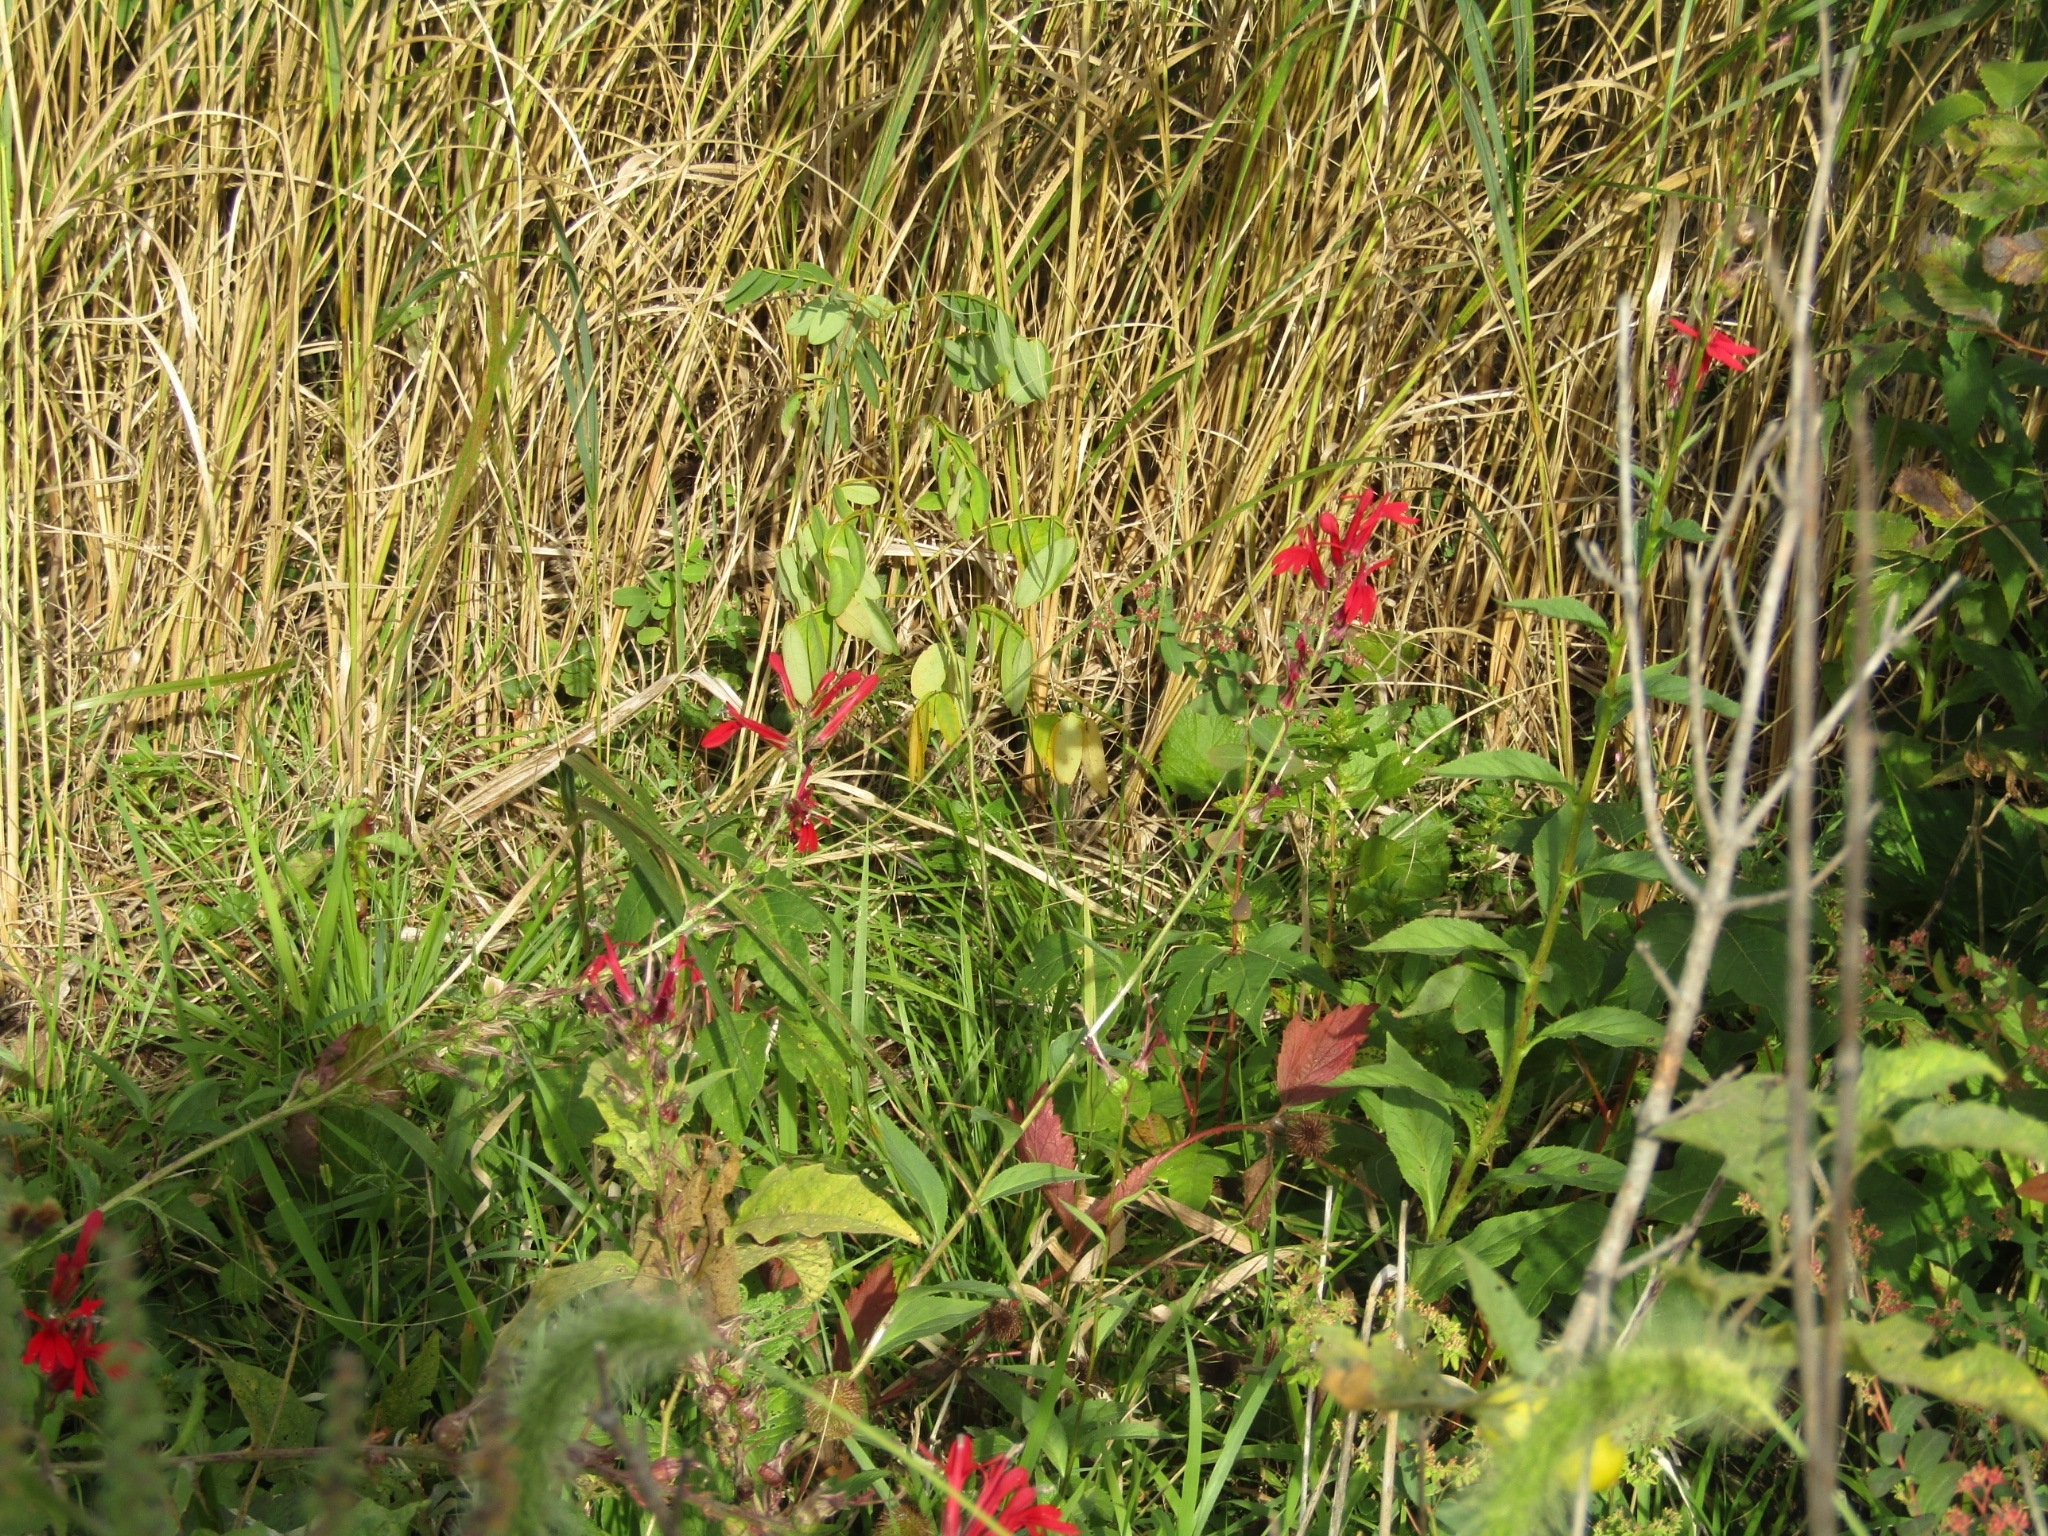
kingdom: Plantae
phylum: Tracheophyta
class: Magnoliopsida
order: Asterales
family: Campanulaceae
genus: Lobelia
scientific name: Lobelia cardinalis
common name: Cardinal flower
